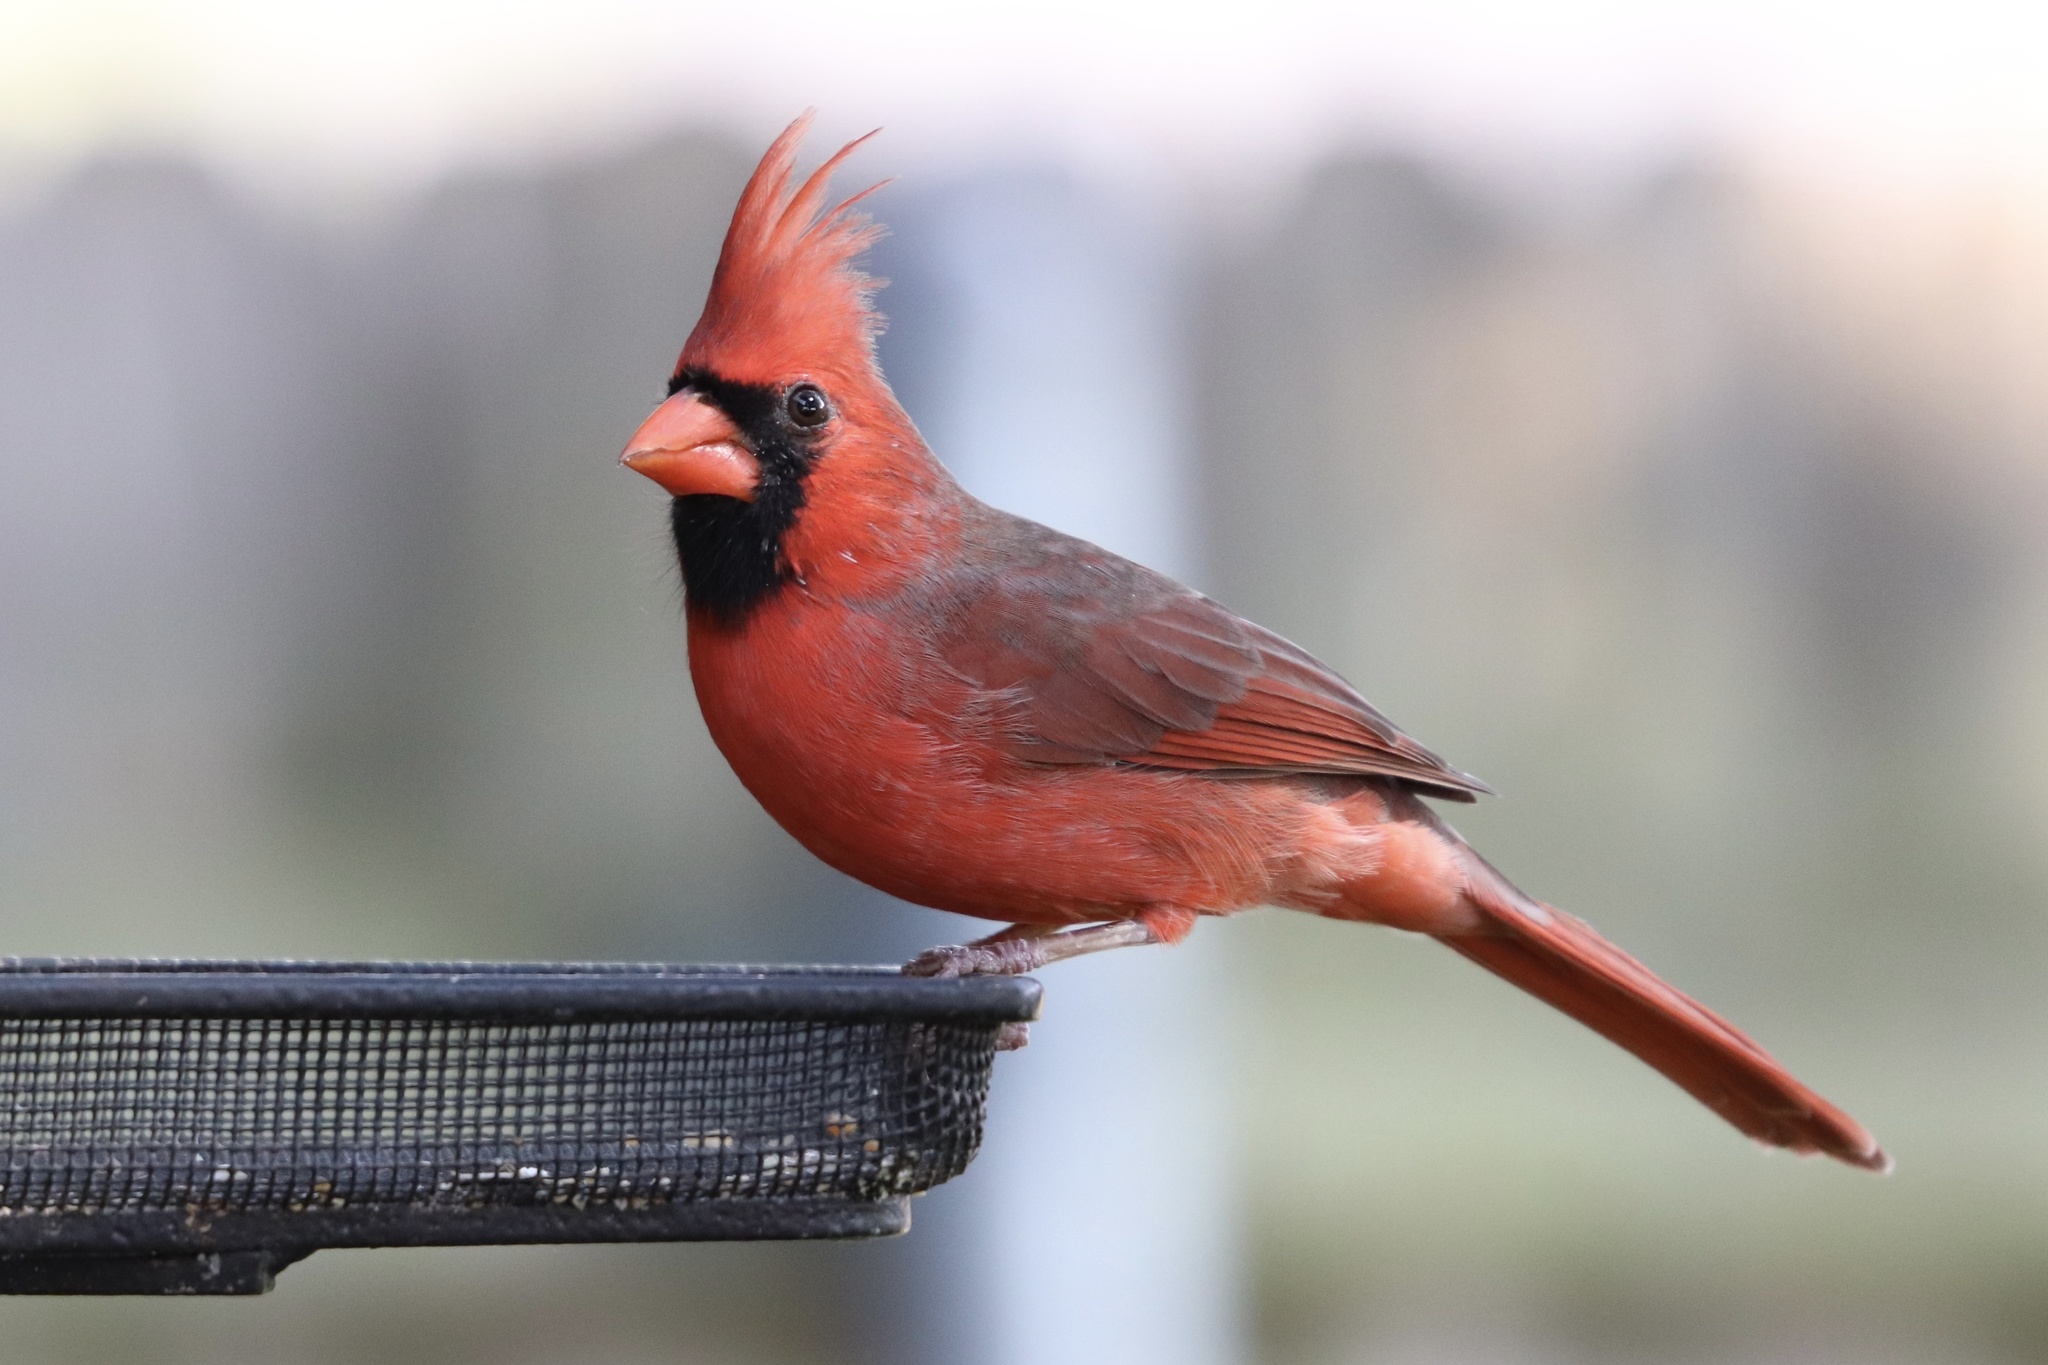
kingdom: Animalia
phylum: Chordata
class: Aves
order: Passeriformes
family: Cardinalidae
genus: Cardinalis
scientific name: Cardinalis cardinalis
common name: Northern cardinal
